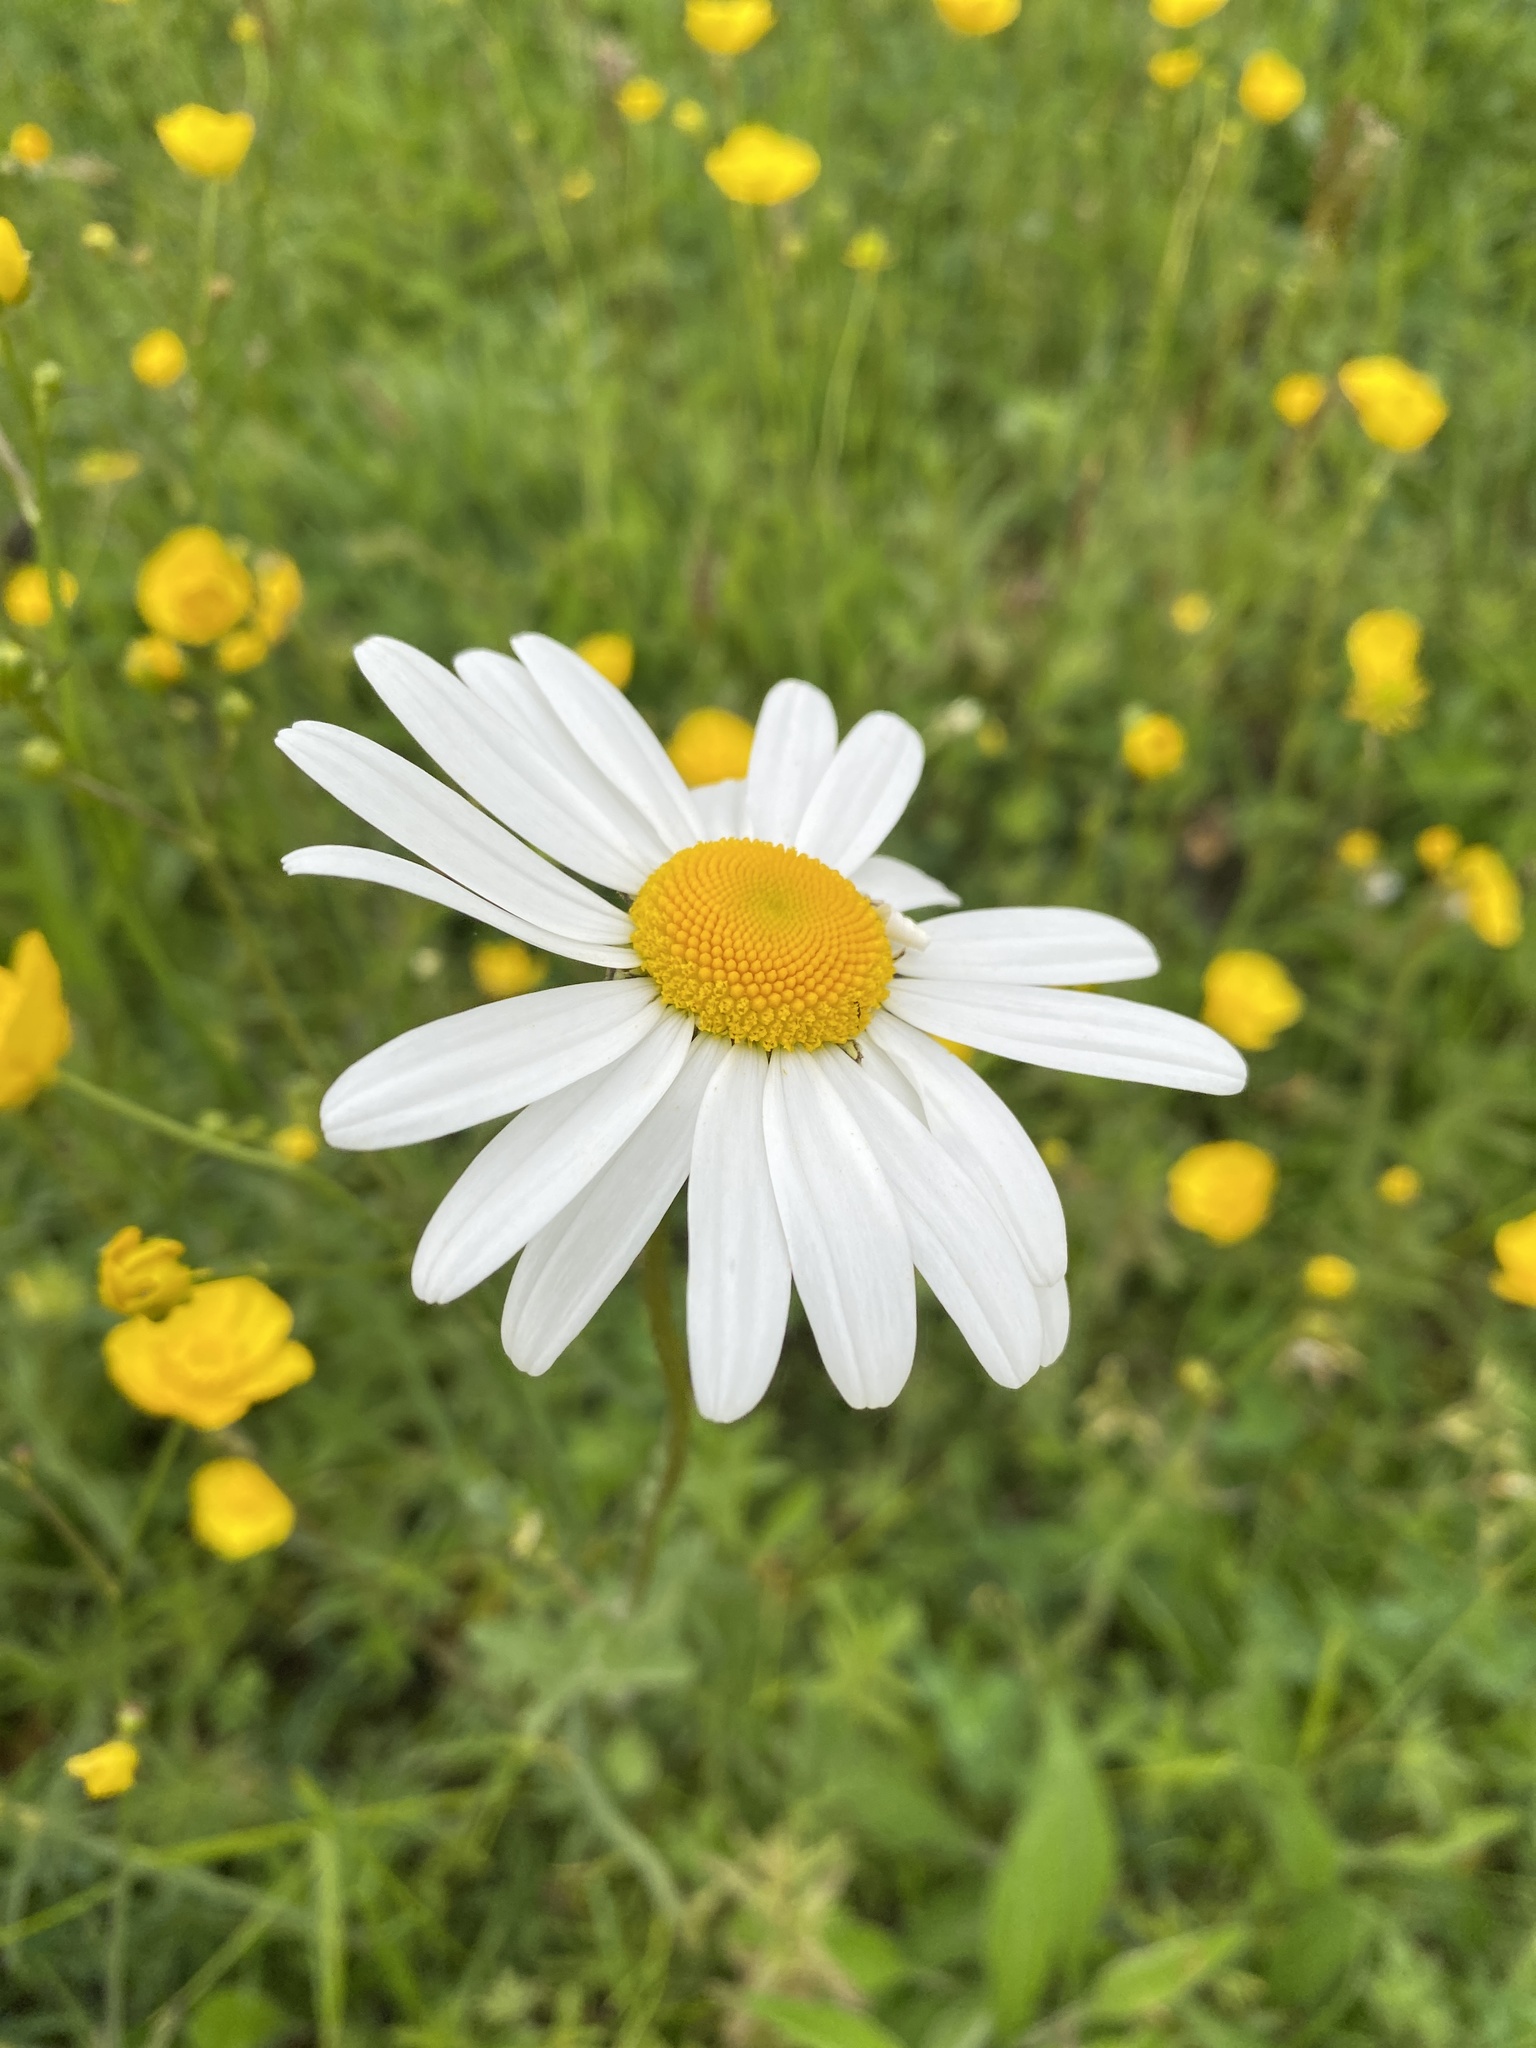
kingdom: Plantae
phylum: Tracheophyta
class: Magnoliopsida
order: Asterales
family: Asteraceae
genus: Leucanthemum
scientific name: Leucanthemum vulgare
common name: Oxeye daisy
